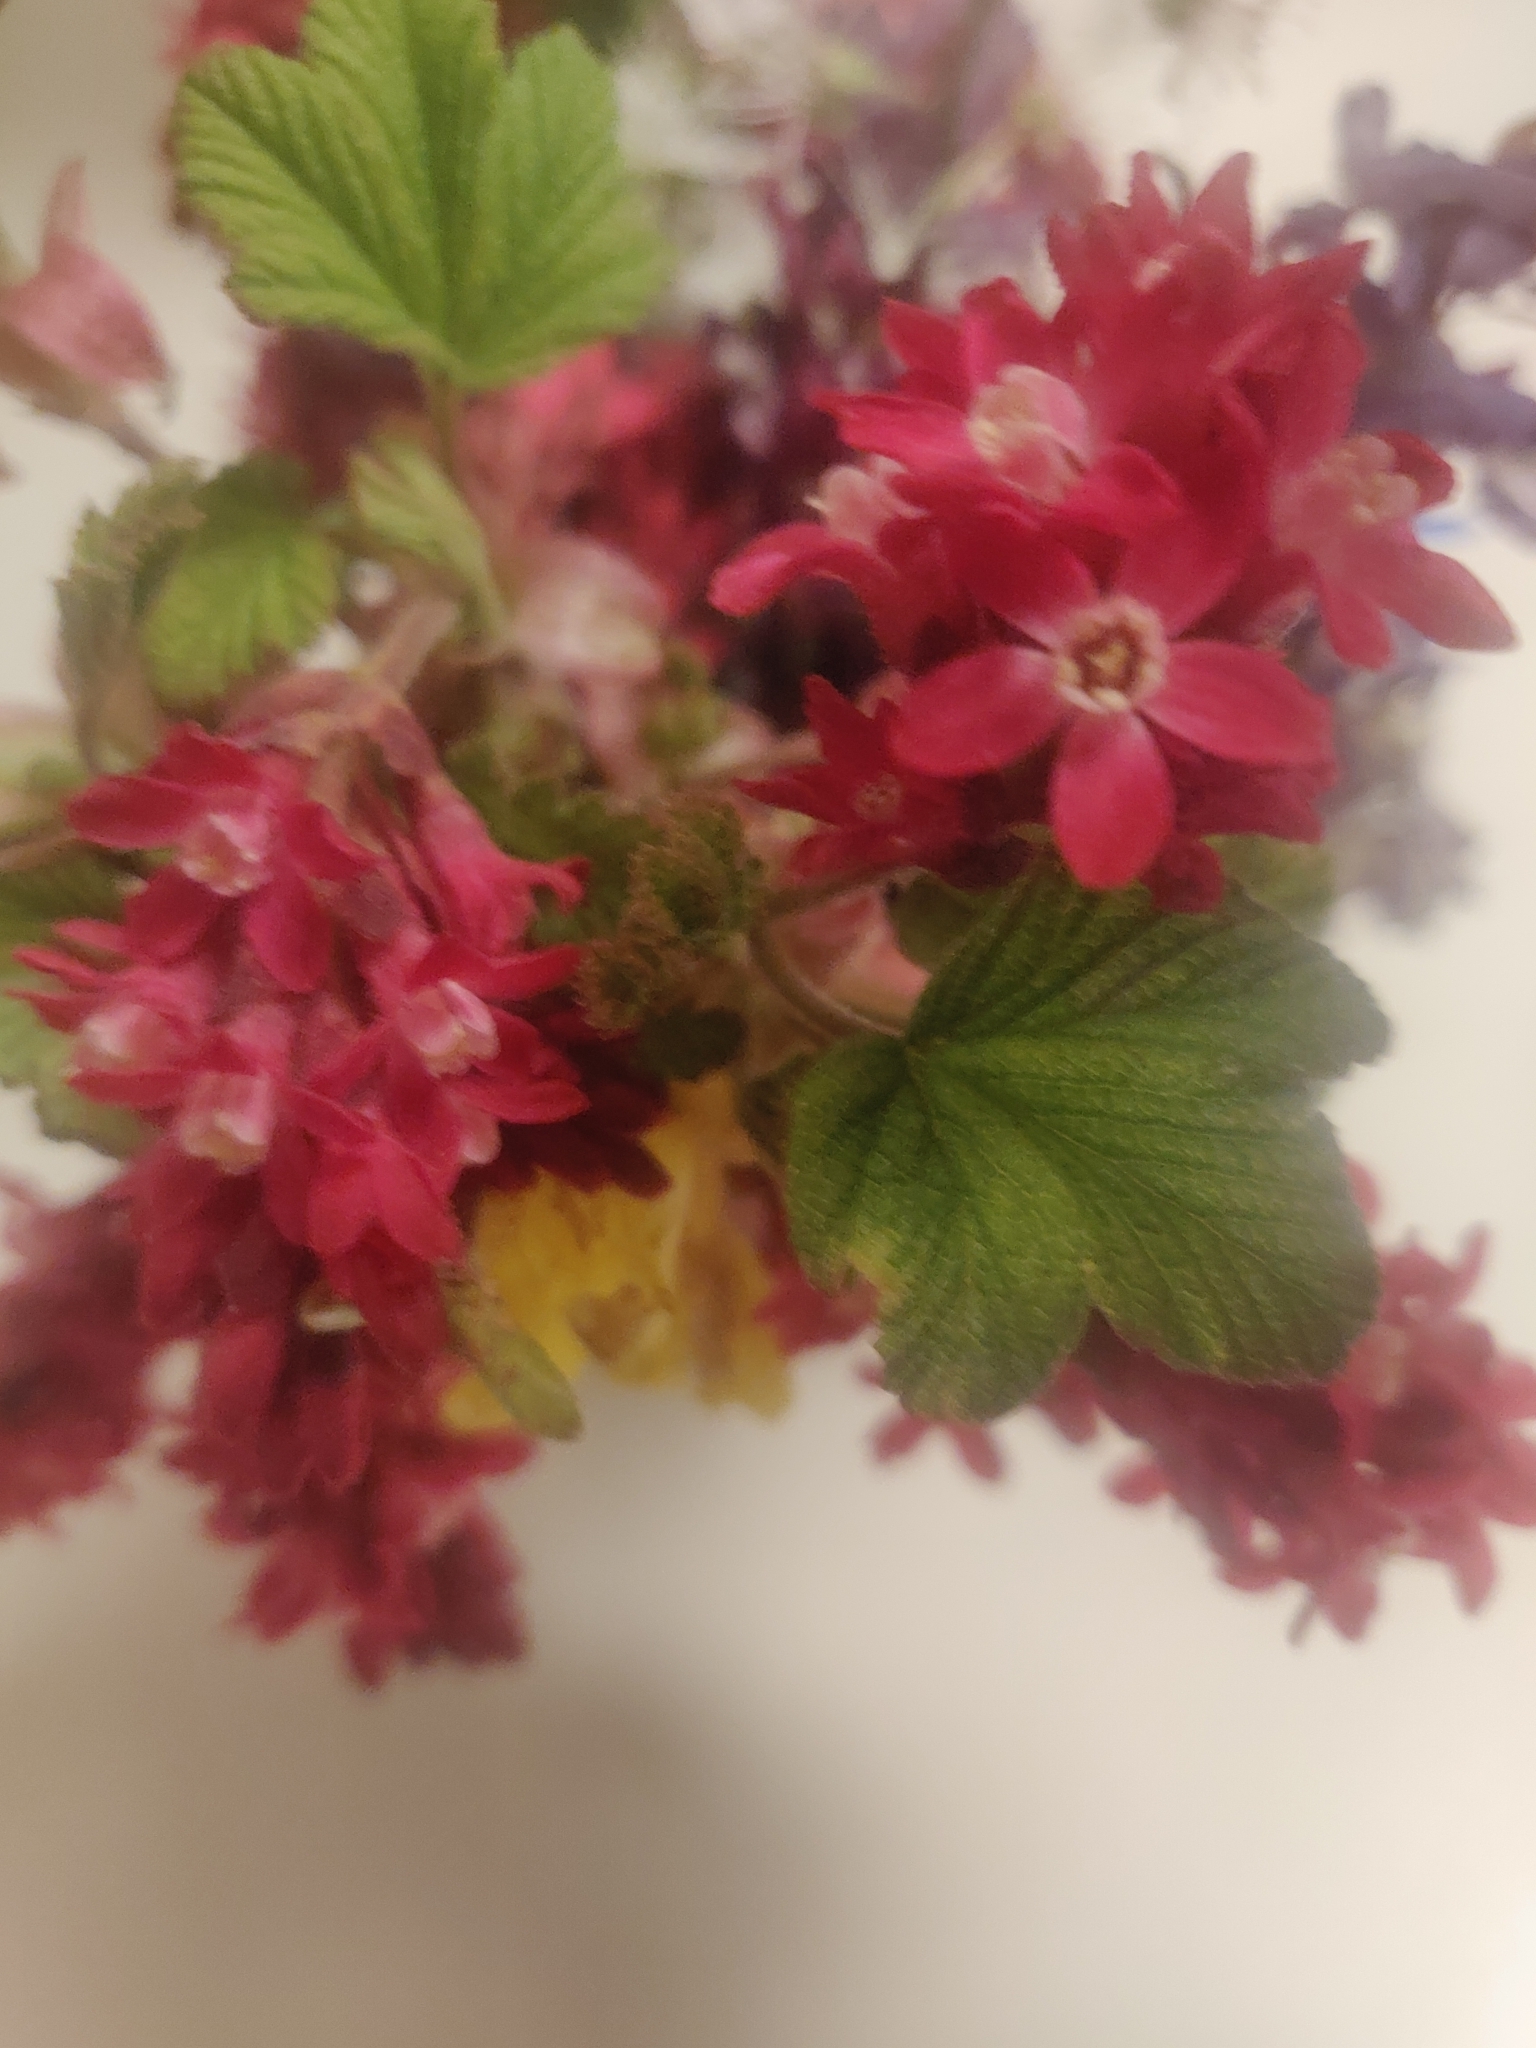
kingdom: Plantae
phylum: Tracheophyta
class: Magnoliopsida
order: Saxifragales
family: Grossulariaceae
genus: Ribes
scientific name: Ribes sanguineum
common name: Flowering currant
